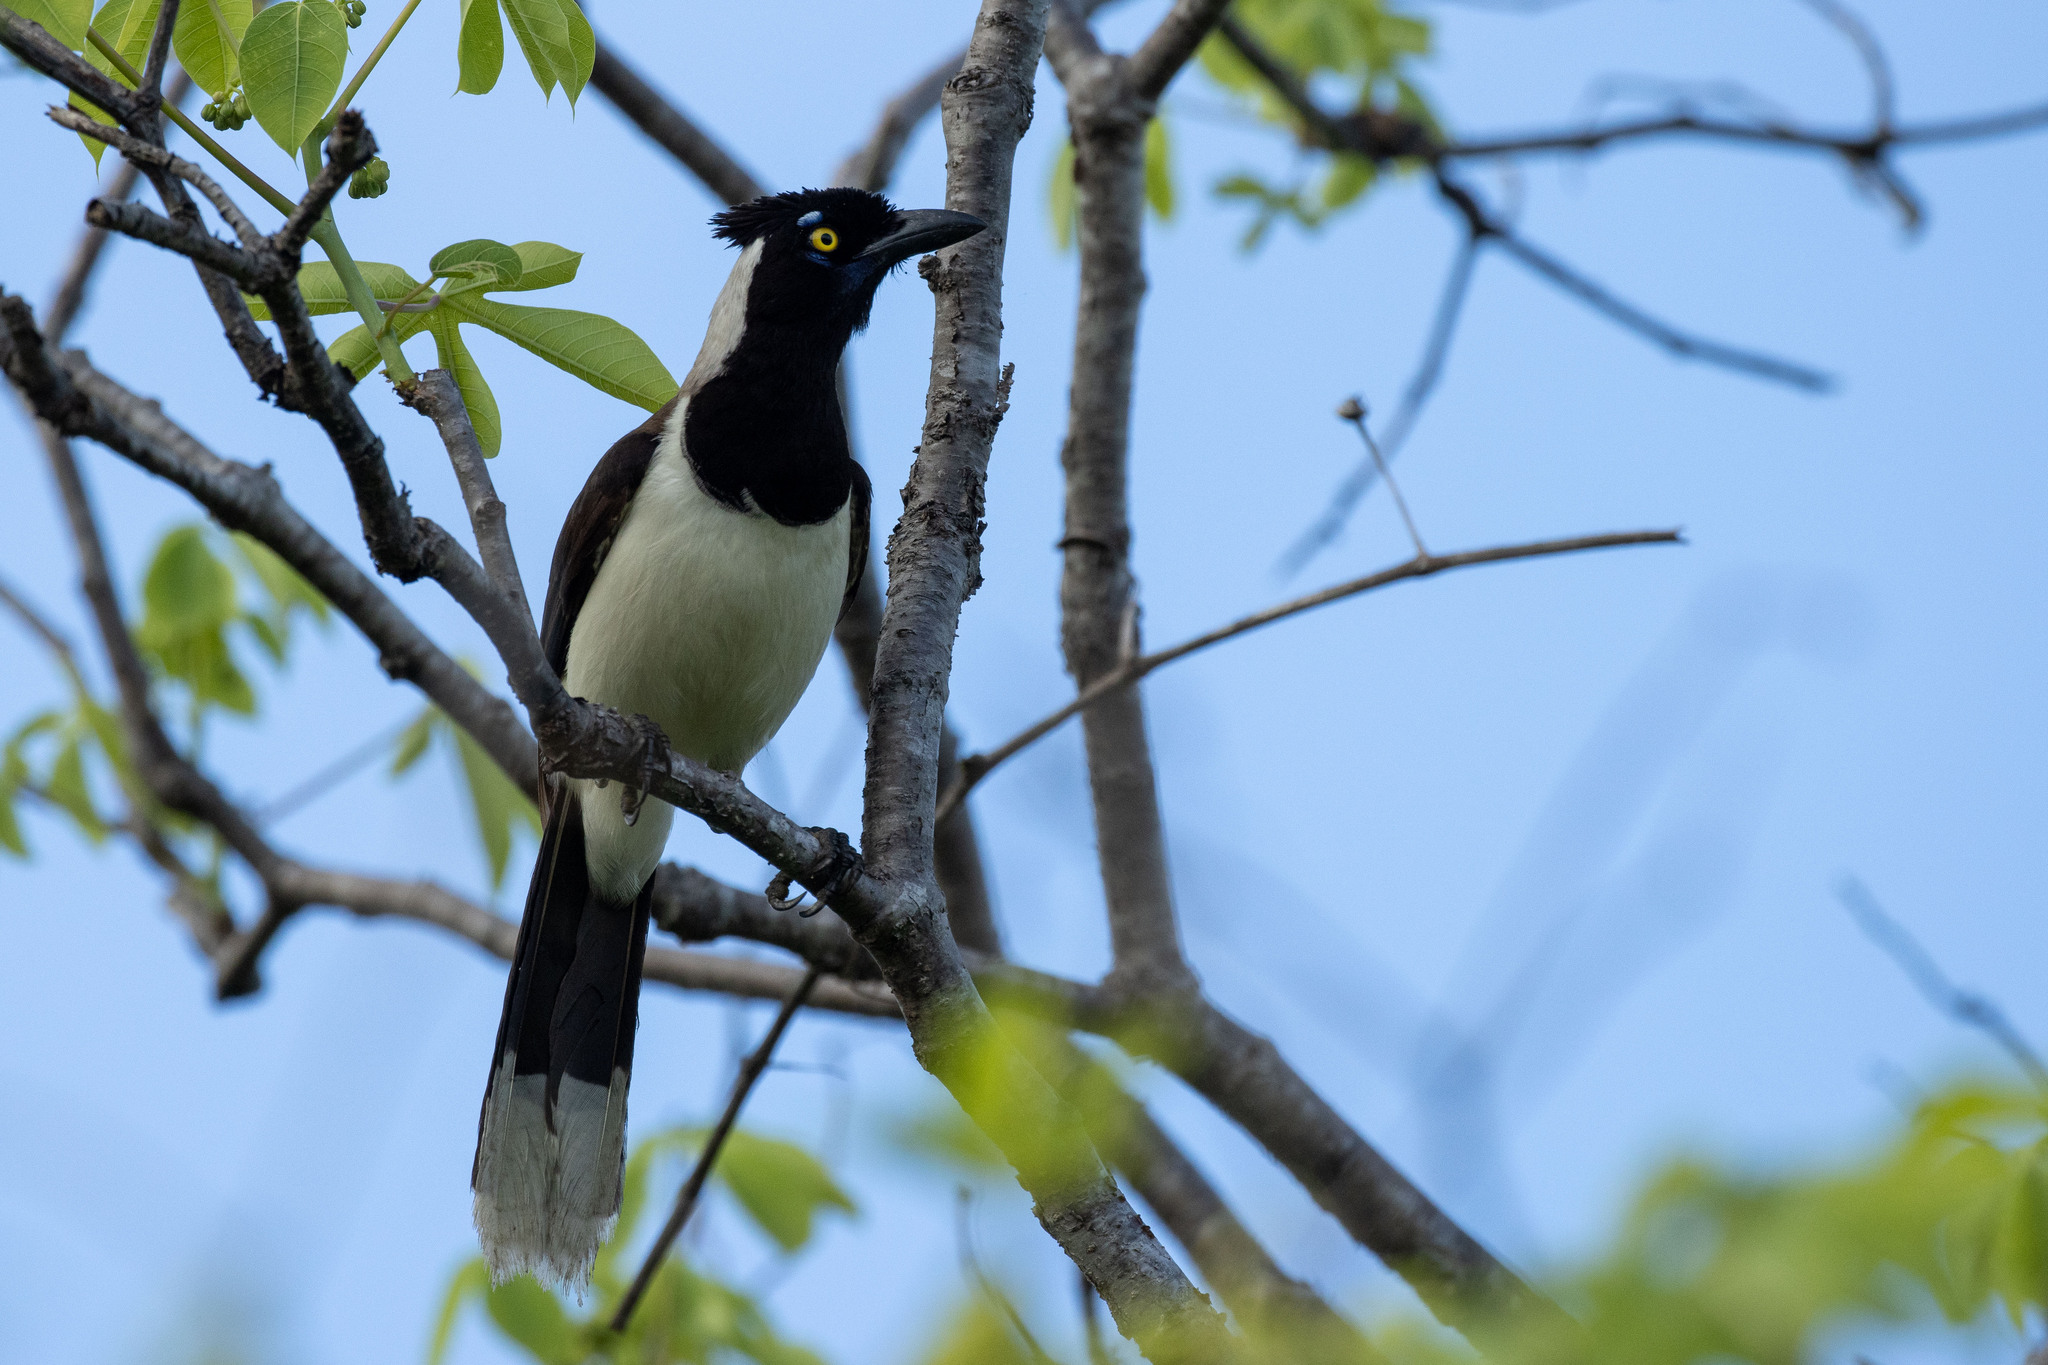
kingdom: Animalia
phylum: Chordata
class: Aves
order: Passeriformes
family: Corvidae
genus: Cyanocorax
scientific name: Cyanocorax cyanopogon
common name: White-naped jay
